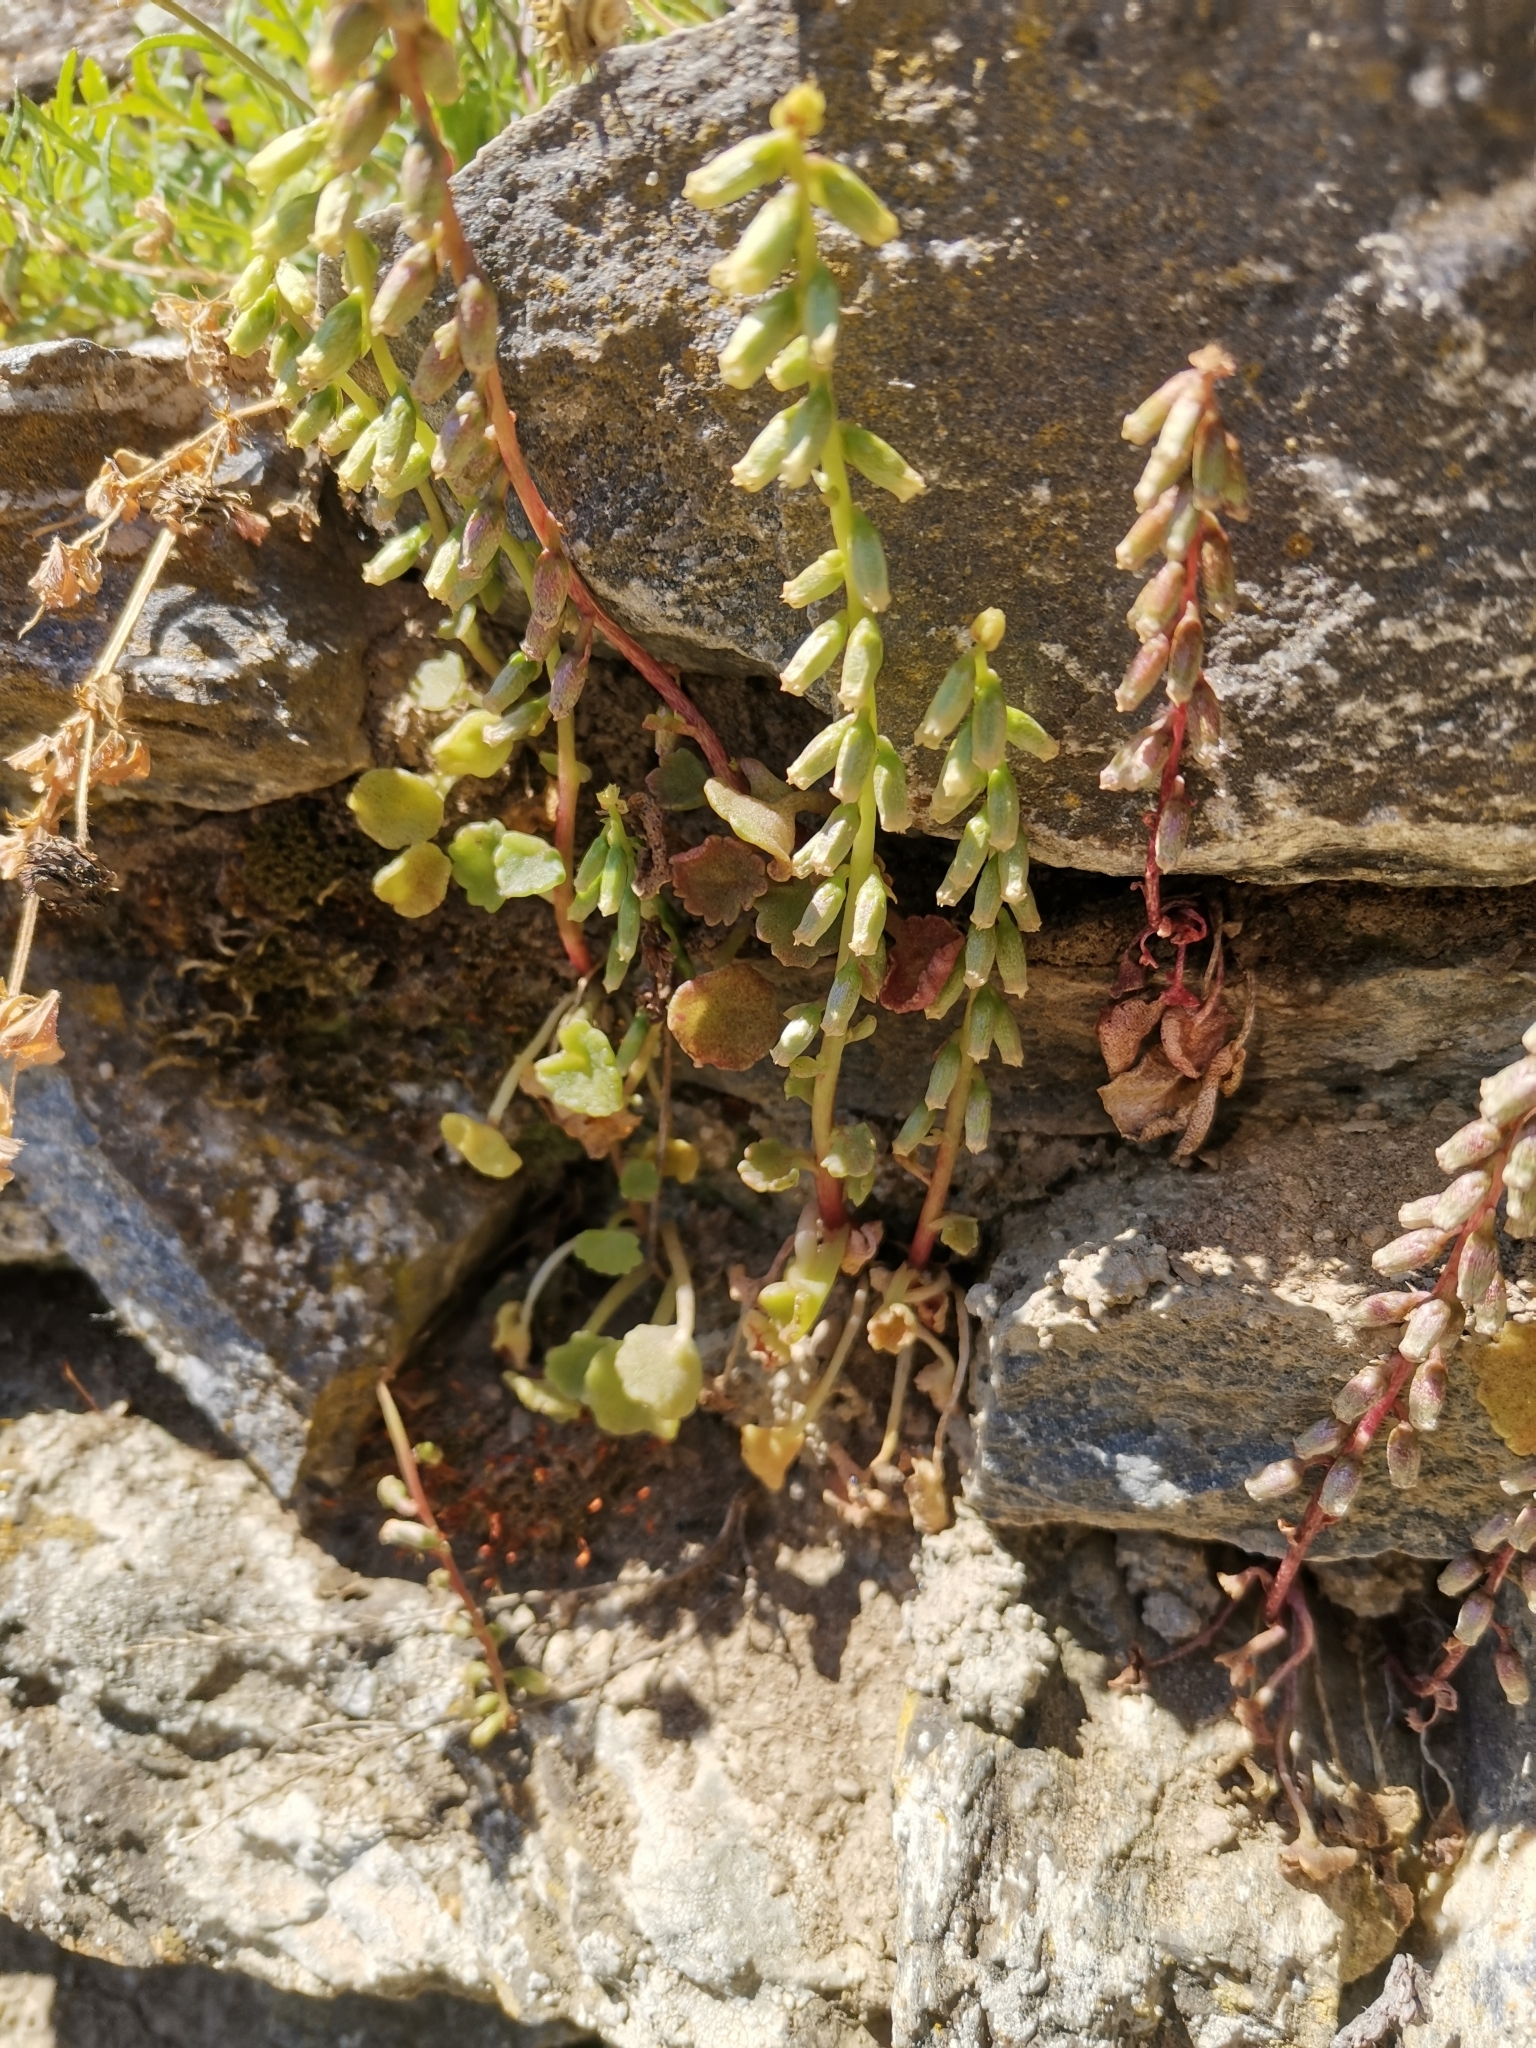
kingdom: Plantae
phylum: Tracheophyta
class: Magnoliopsida
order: Saxifragales
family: Crassulaceae
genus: Umbilicus
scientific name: Umbilicus rupestris
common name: Navelwort
